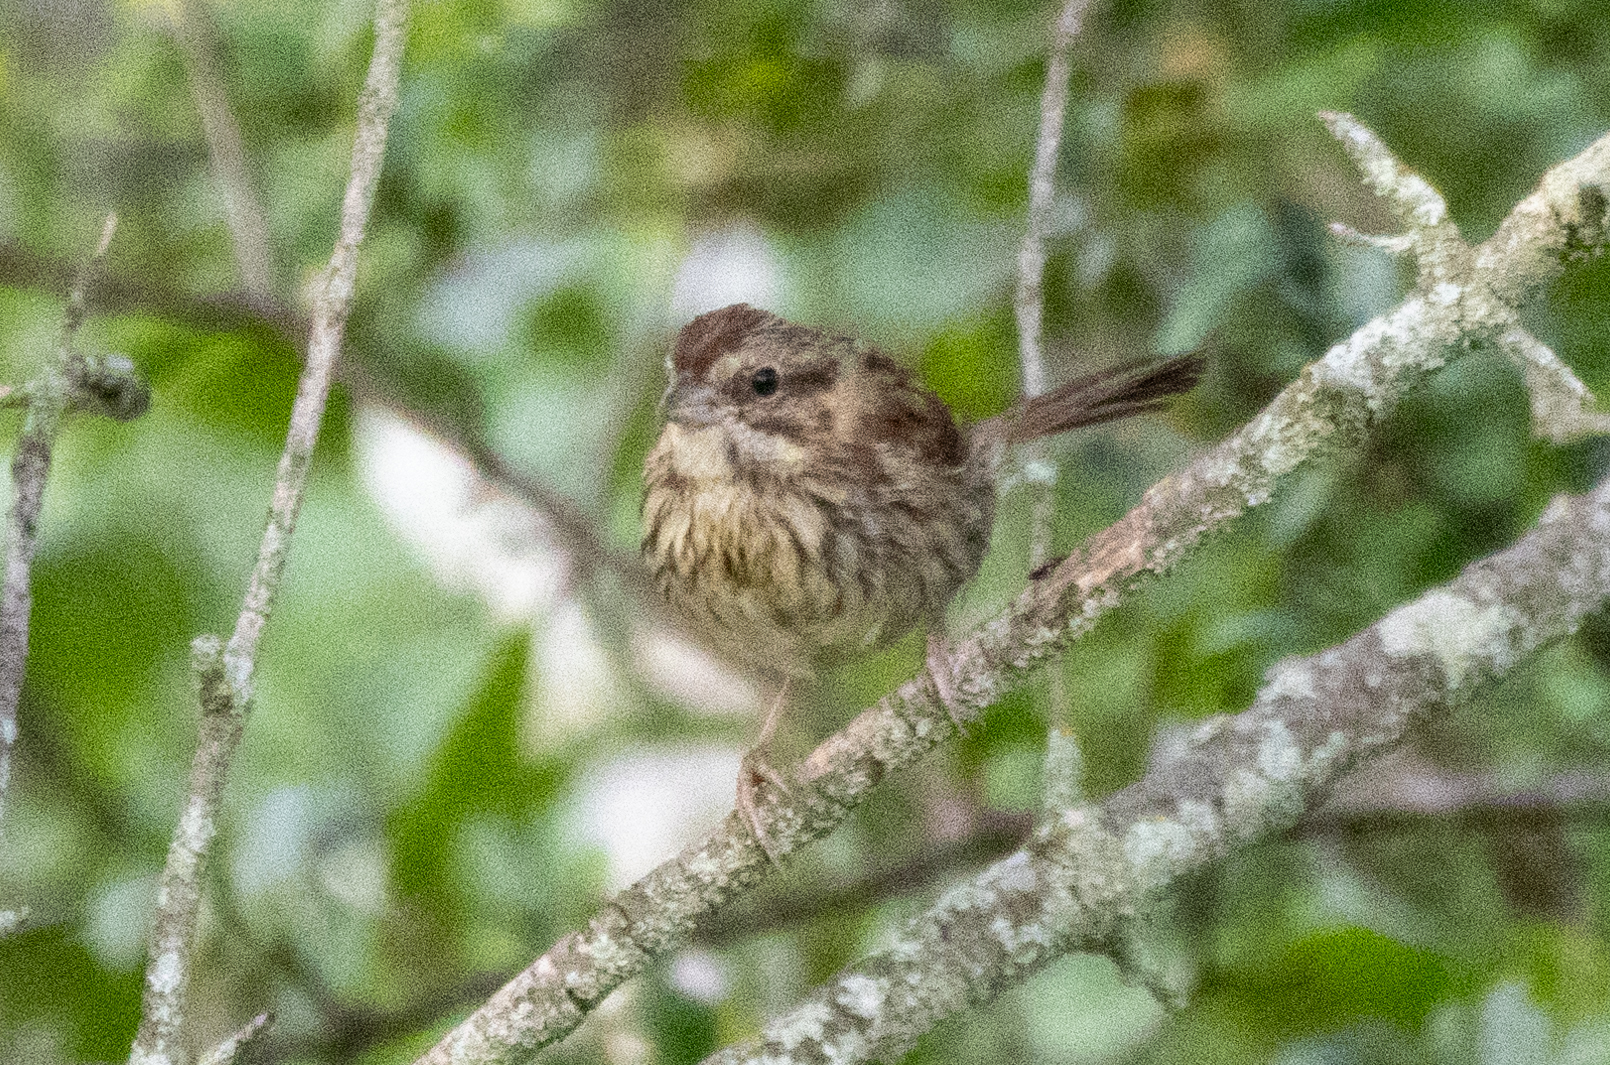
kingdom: Animalia
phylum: Chordata
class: Aves
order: Passeriformes
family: Passerellidae
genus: Melospiza
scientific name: Melospiza melodia
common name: Song sparrow
